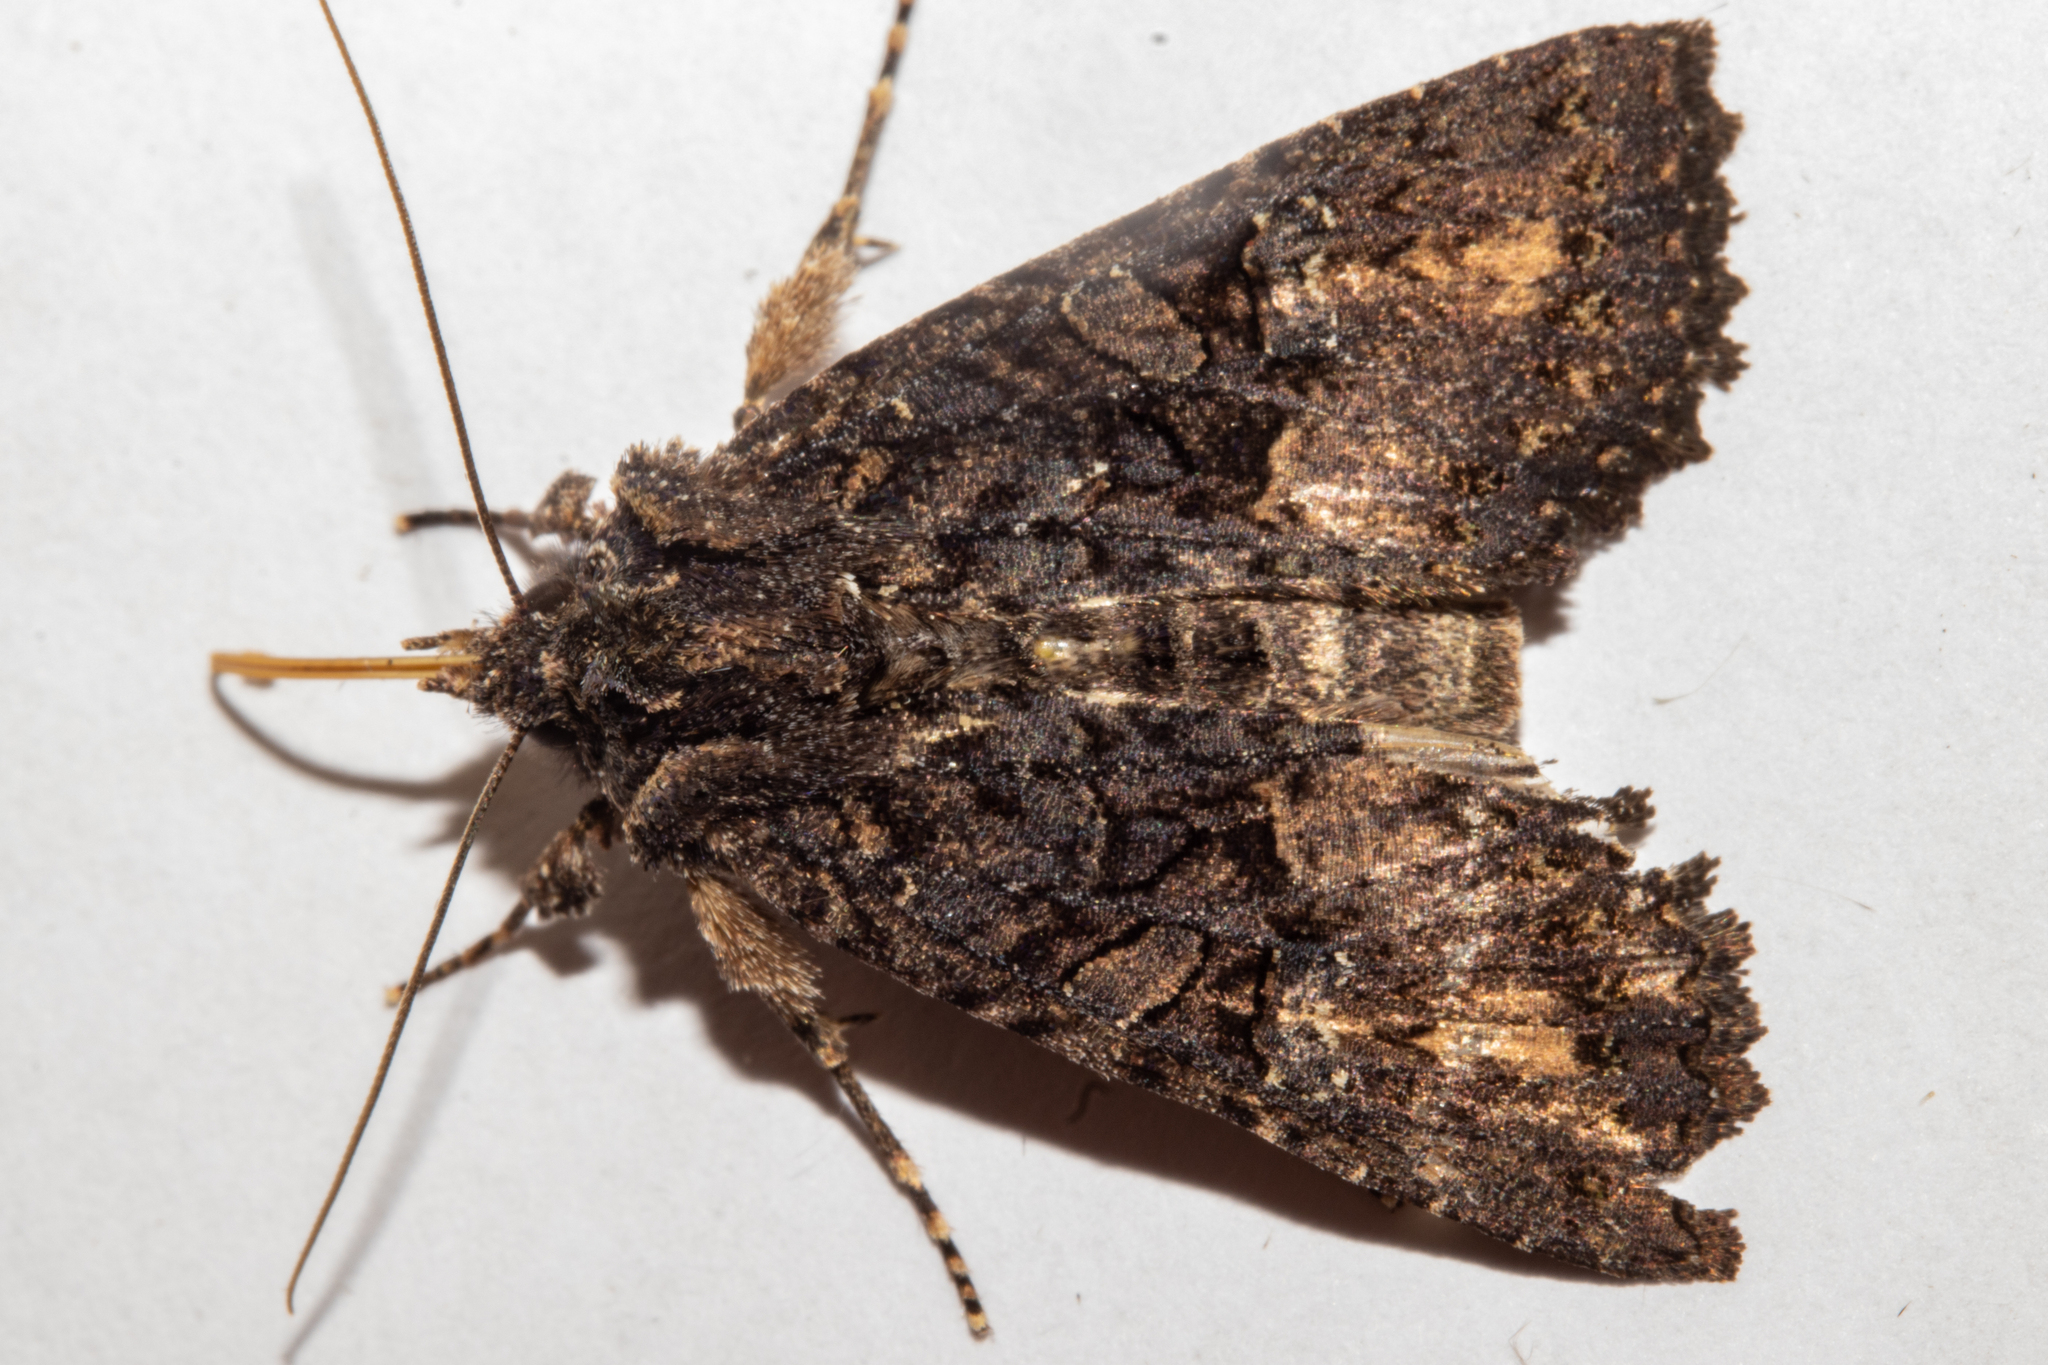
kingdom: Animalia
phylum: Arthropoda
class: Insecta
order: Lepidoptera
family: Noctuidae
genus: Meterana
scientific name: Meterana ochthistis
